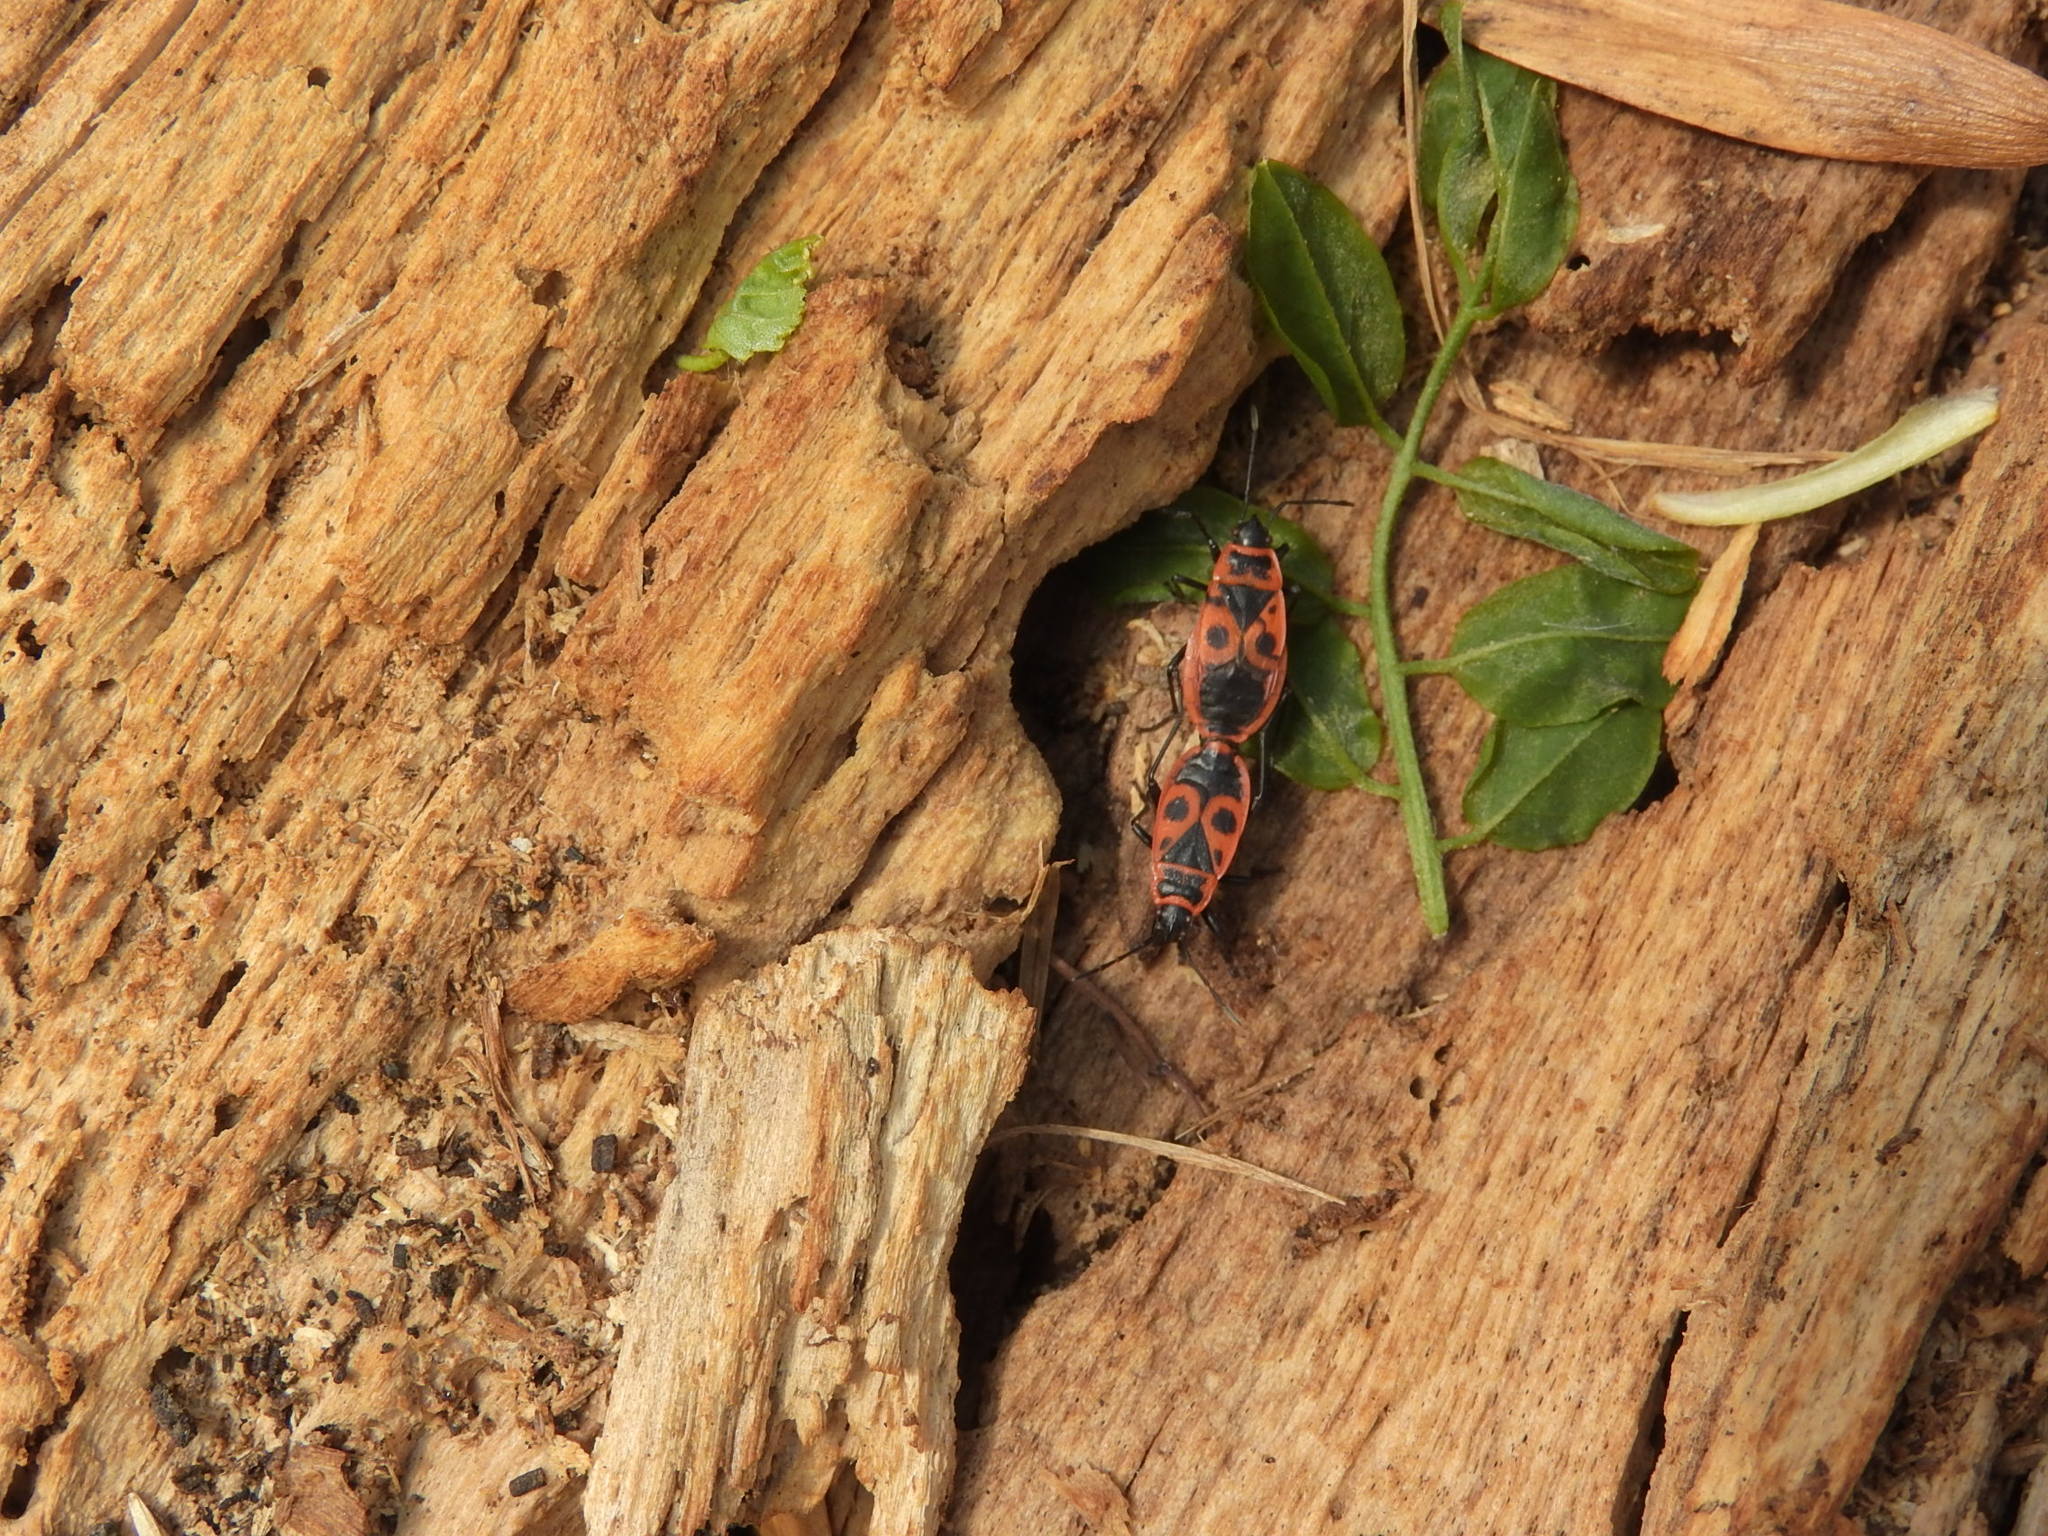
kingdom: Animalia
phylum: Arthropoda
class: Insecta
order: Hemiptera
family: Pyrrhocoridae
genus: Pyrrhocoris
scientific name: Pyrrhocoris apterus
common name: Firebug
